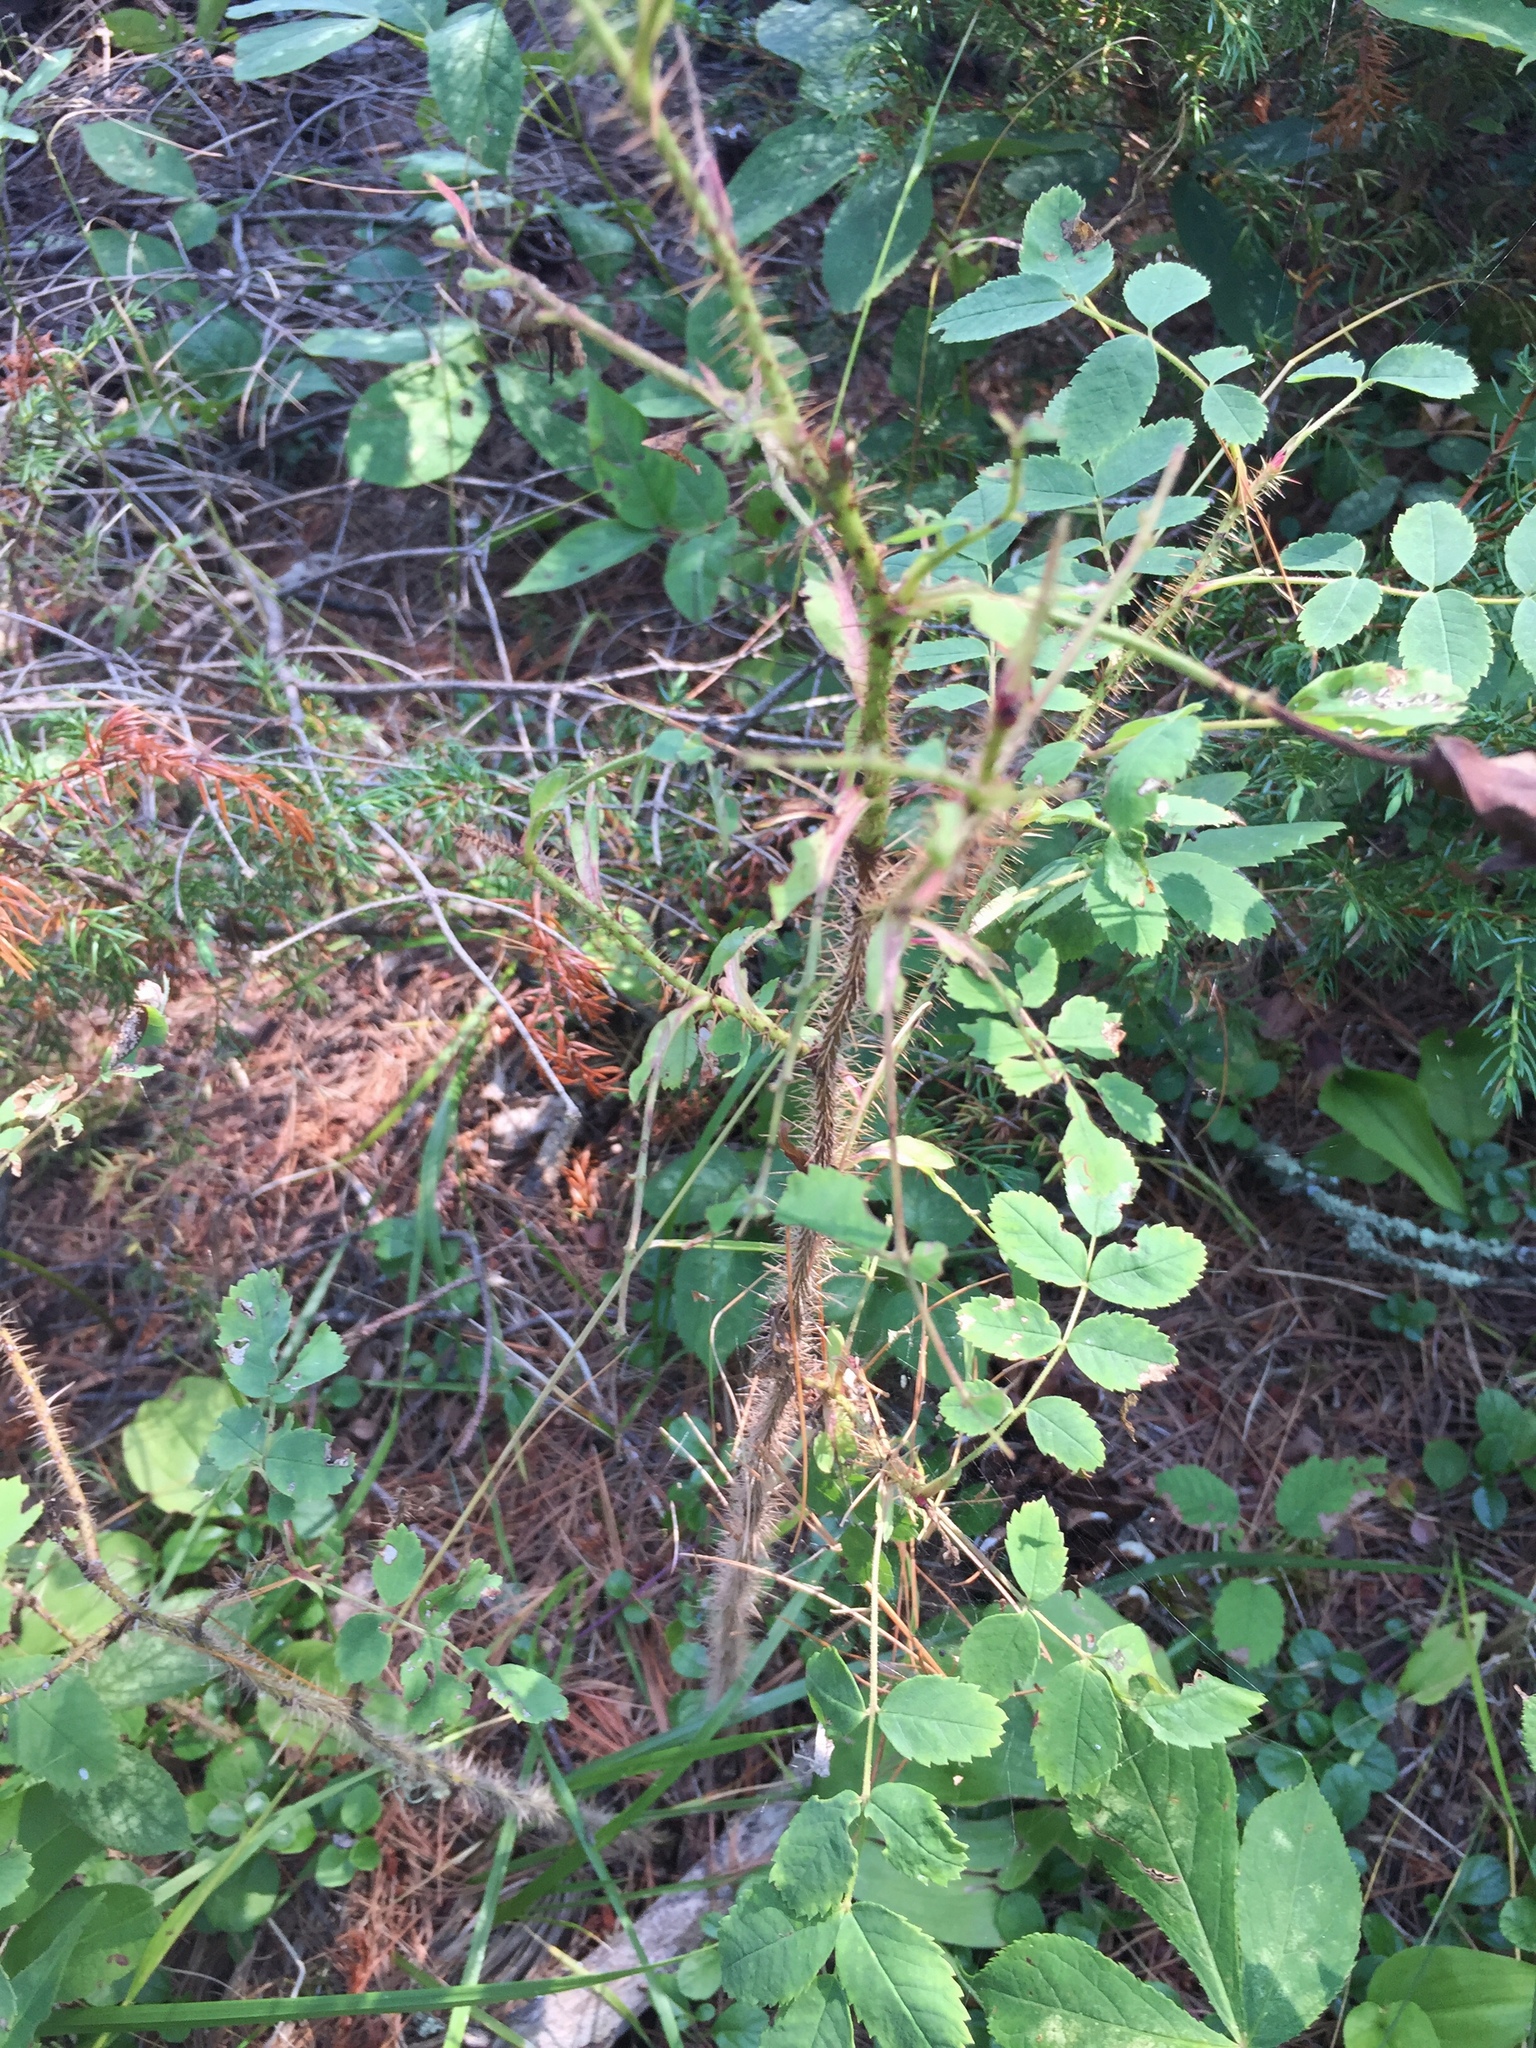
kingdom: Plantae
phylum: Tracheophyta
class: Magnoliopsida
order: Rosales
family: Rosaceae
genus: Rosa
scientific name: Rosa acicularis
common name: Prickly rose
